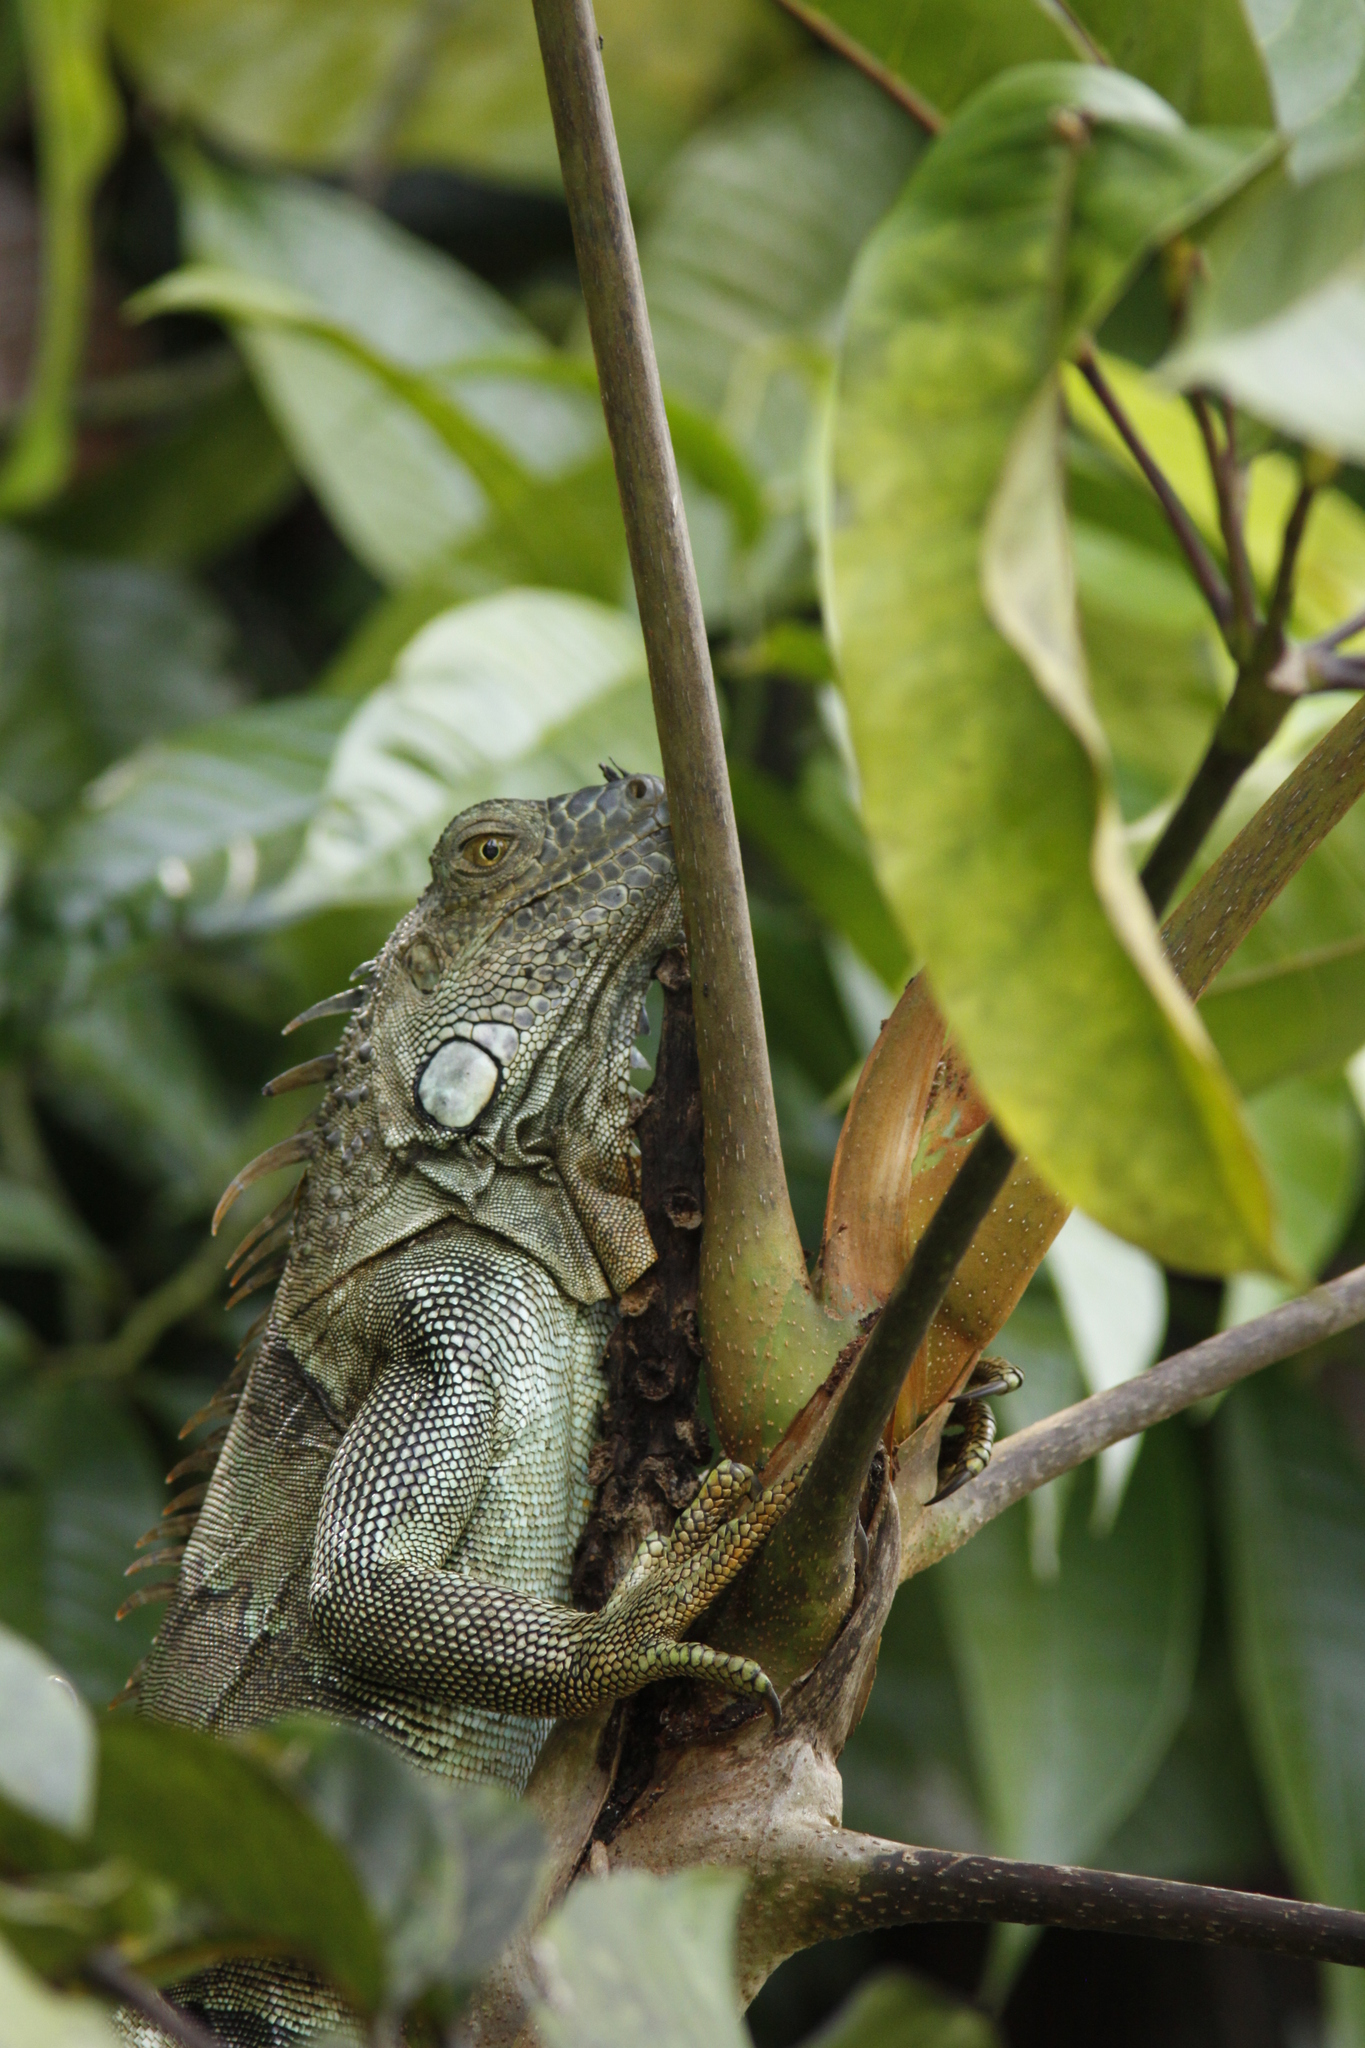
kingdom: Animalia
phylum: Chordata
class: Squamata
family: Iguanidae
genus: Iguana
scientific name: Iguana iguana
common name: Green iguana
